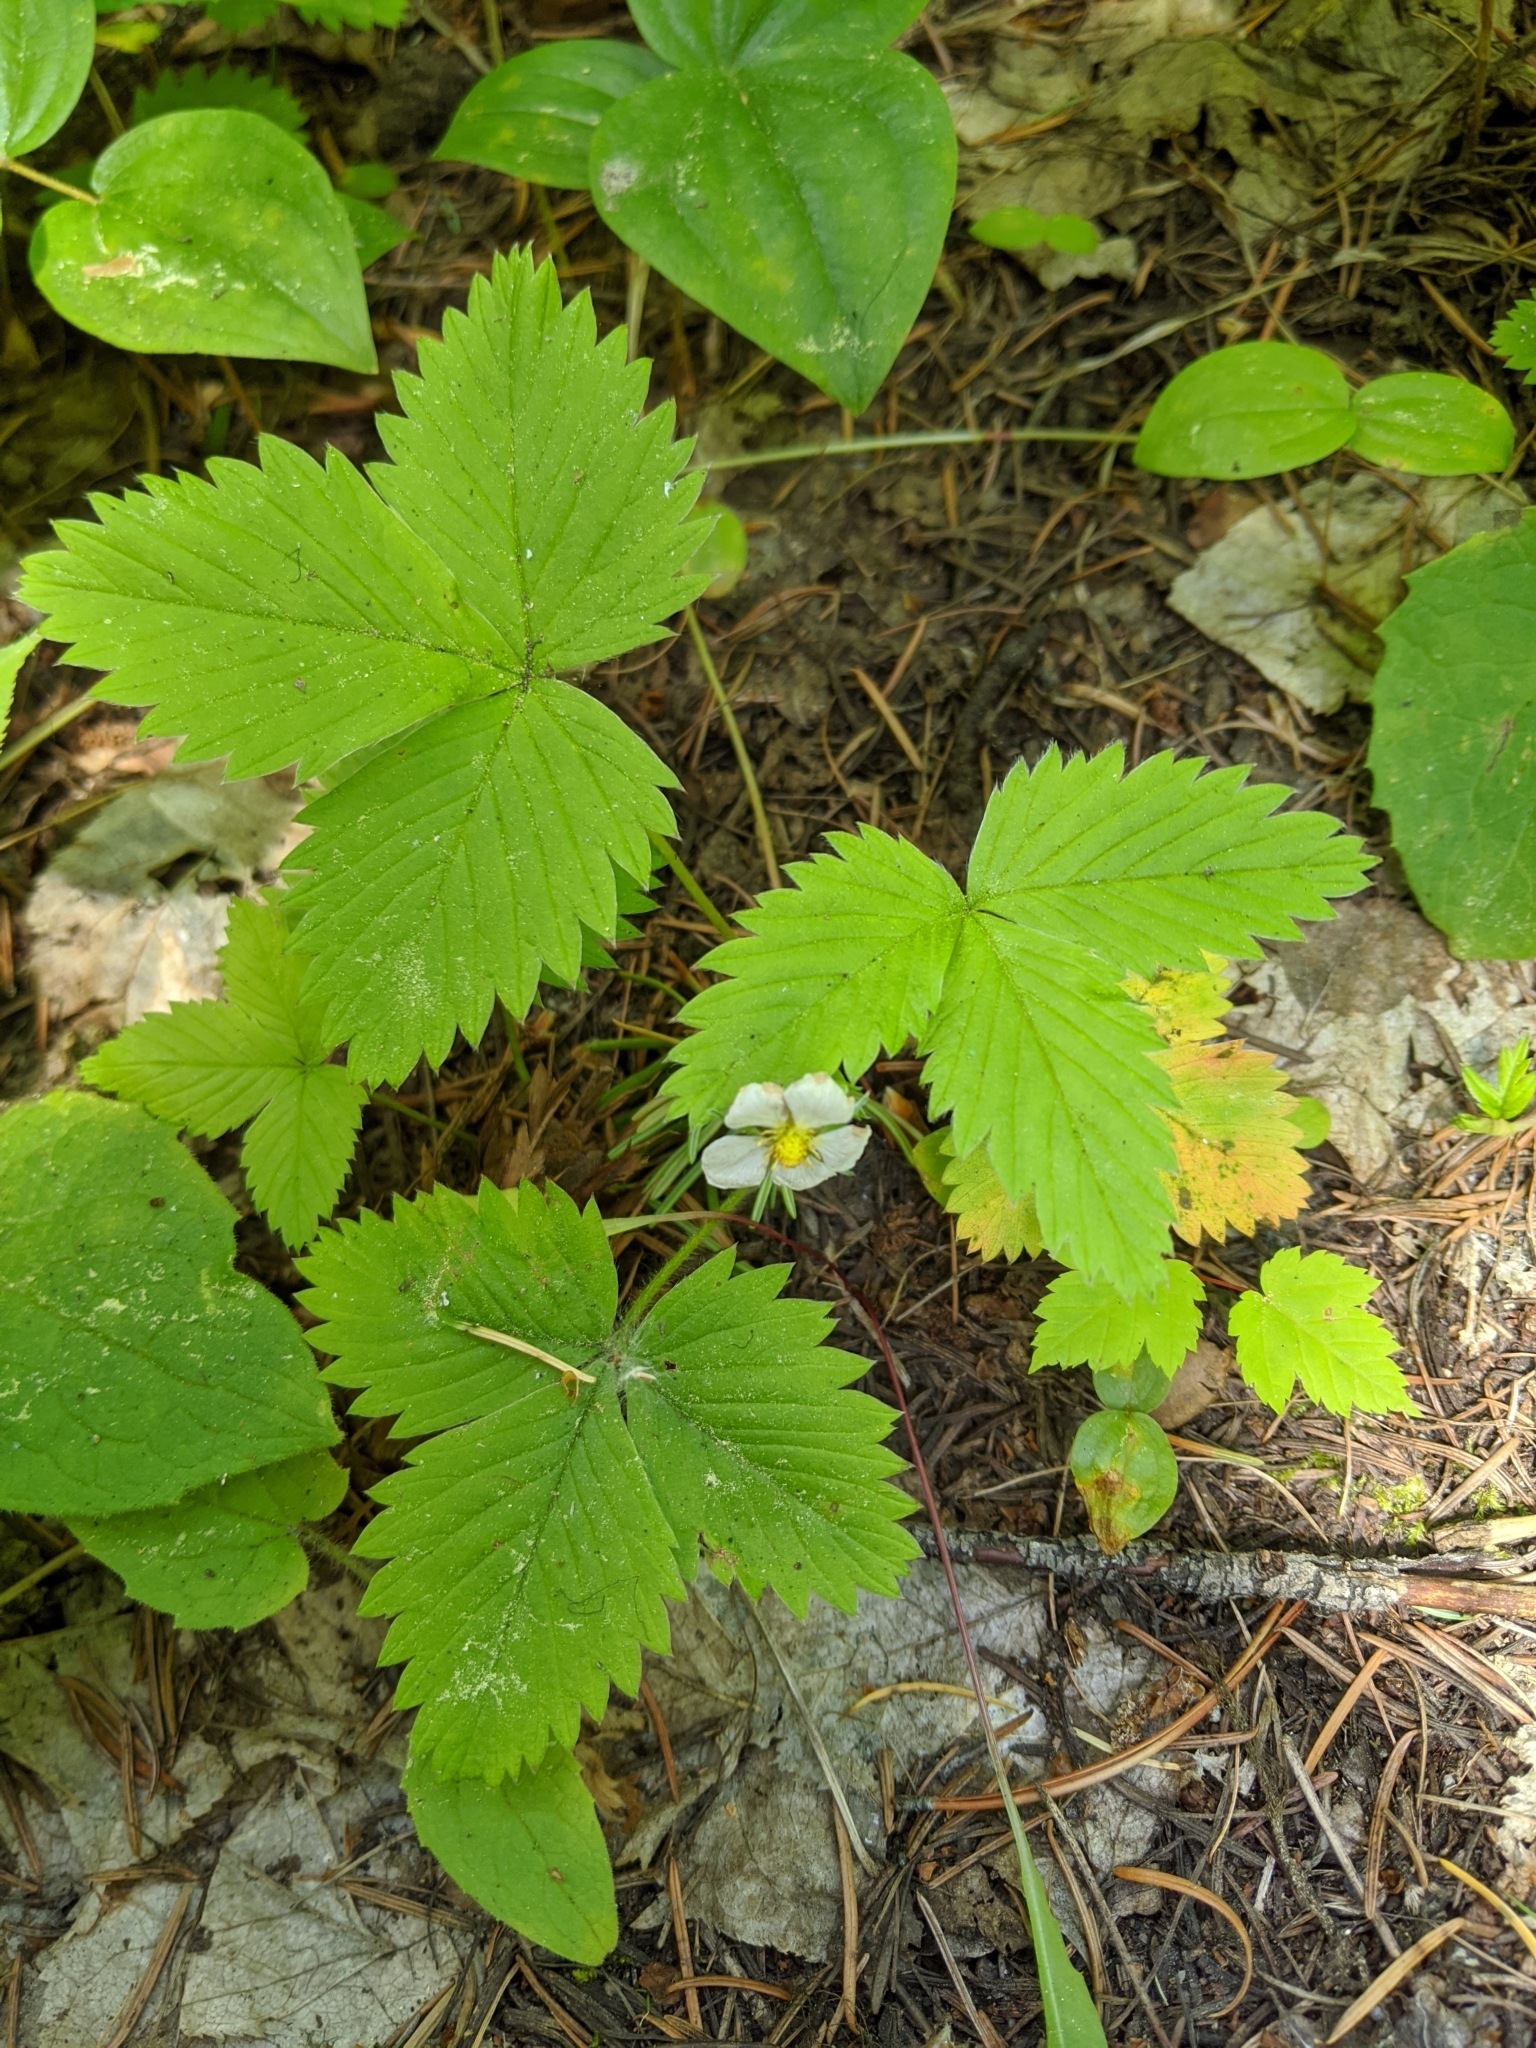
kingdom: Plantae
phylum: Tracheophyta
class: Magnoliopsida
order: Rosales
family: Rosaceae
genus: Fragaria
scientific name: Fragaria vesca
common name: Wild strawberry
